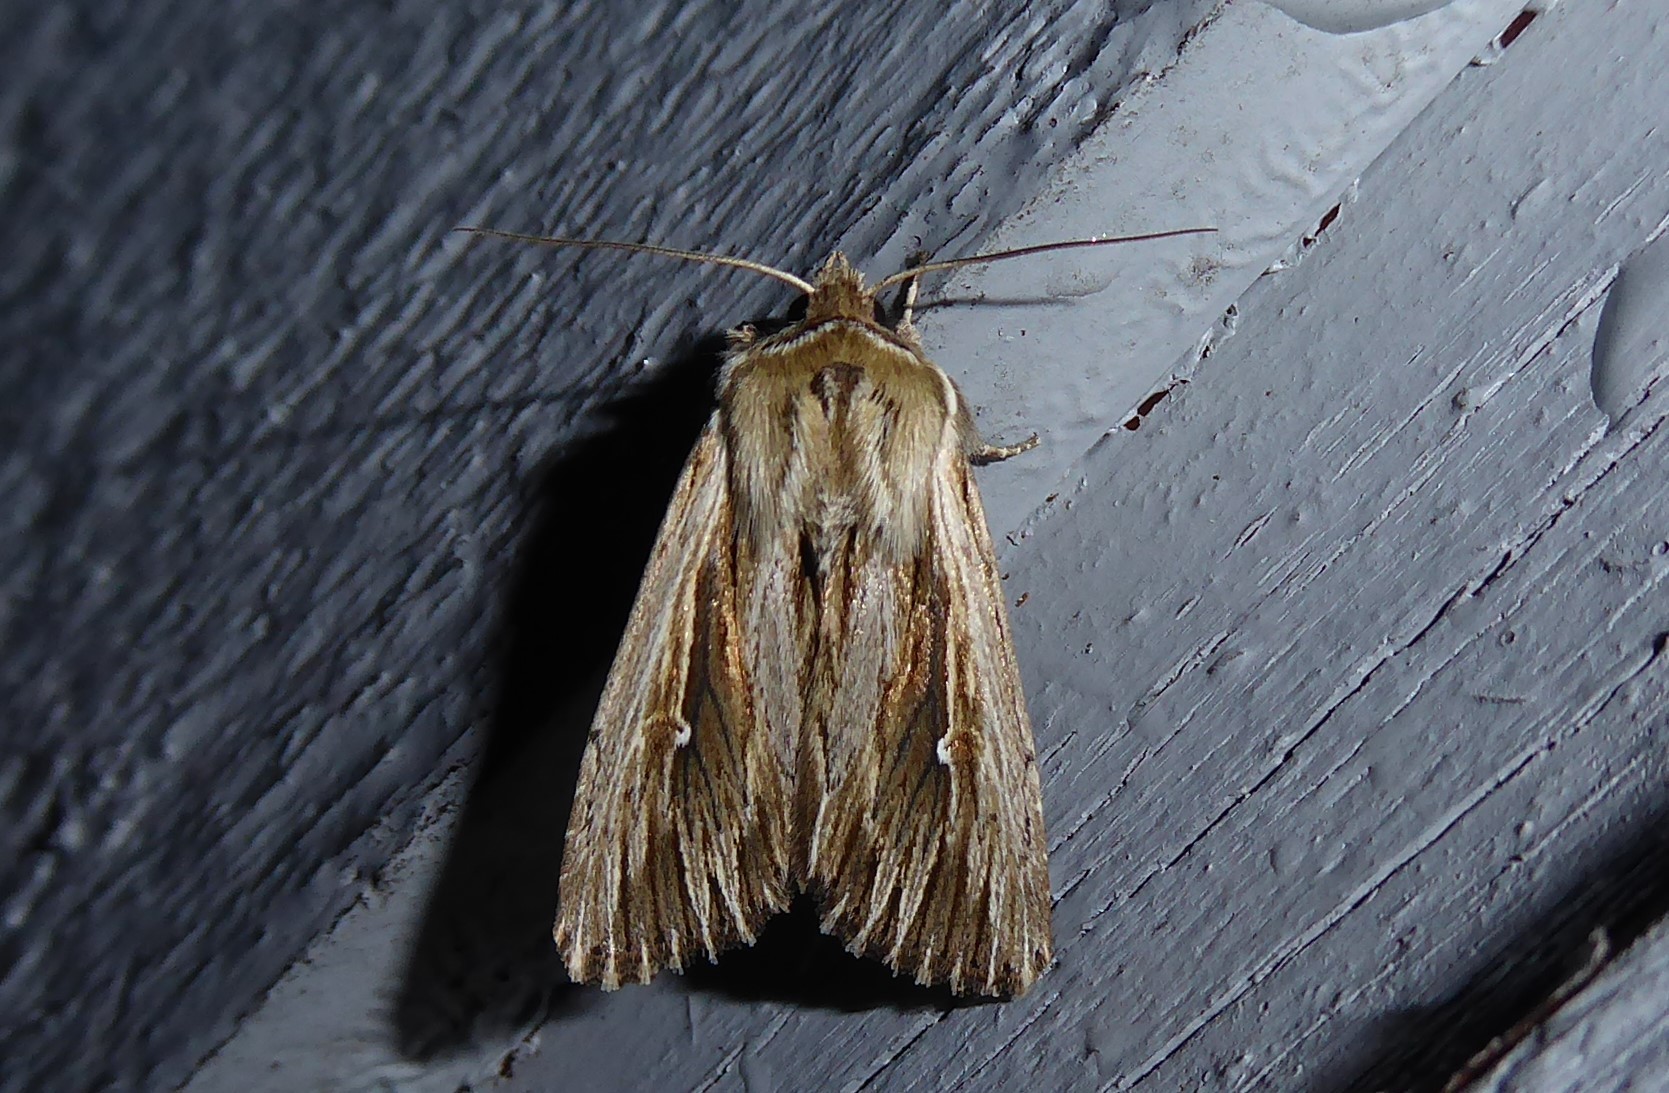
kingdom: Animalia
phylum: Arthropoda
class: Insecta
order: Lepidoptera
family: Noctuidae
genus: Persectania
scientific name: Persectania aversa
